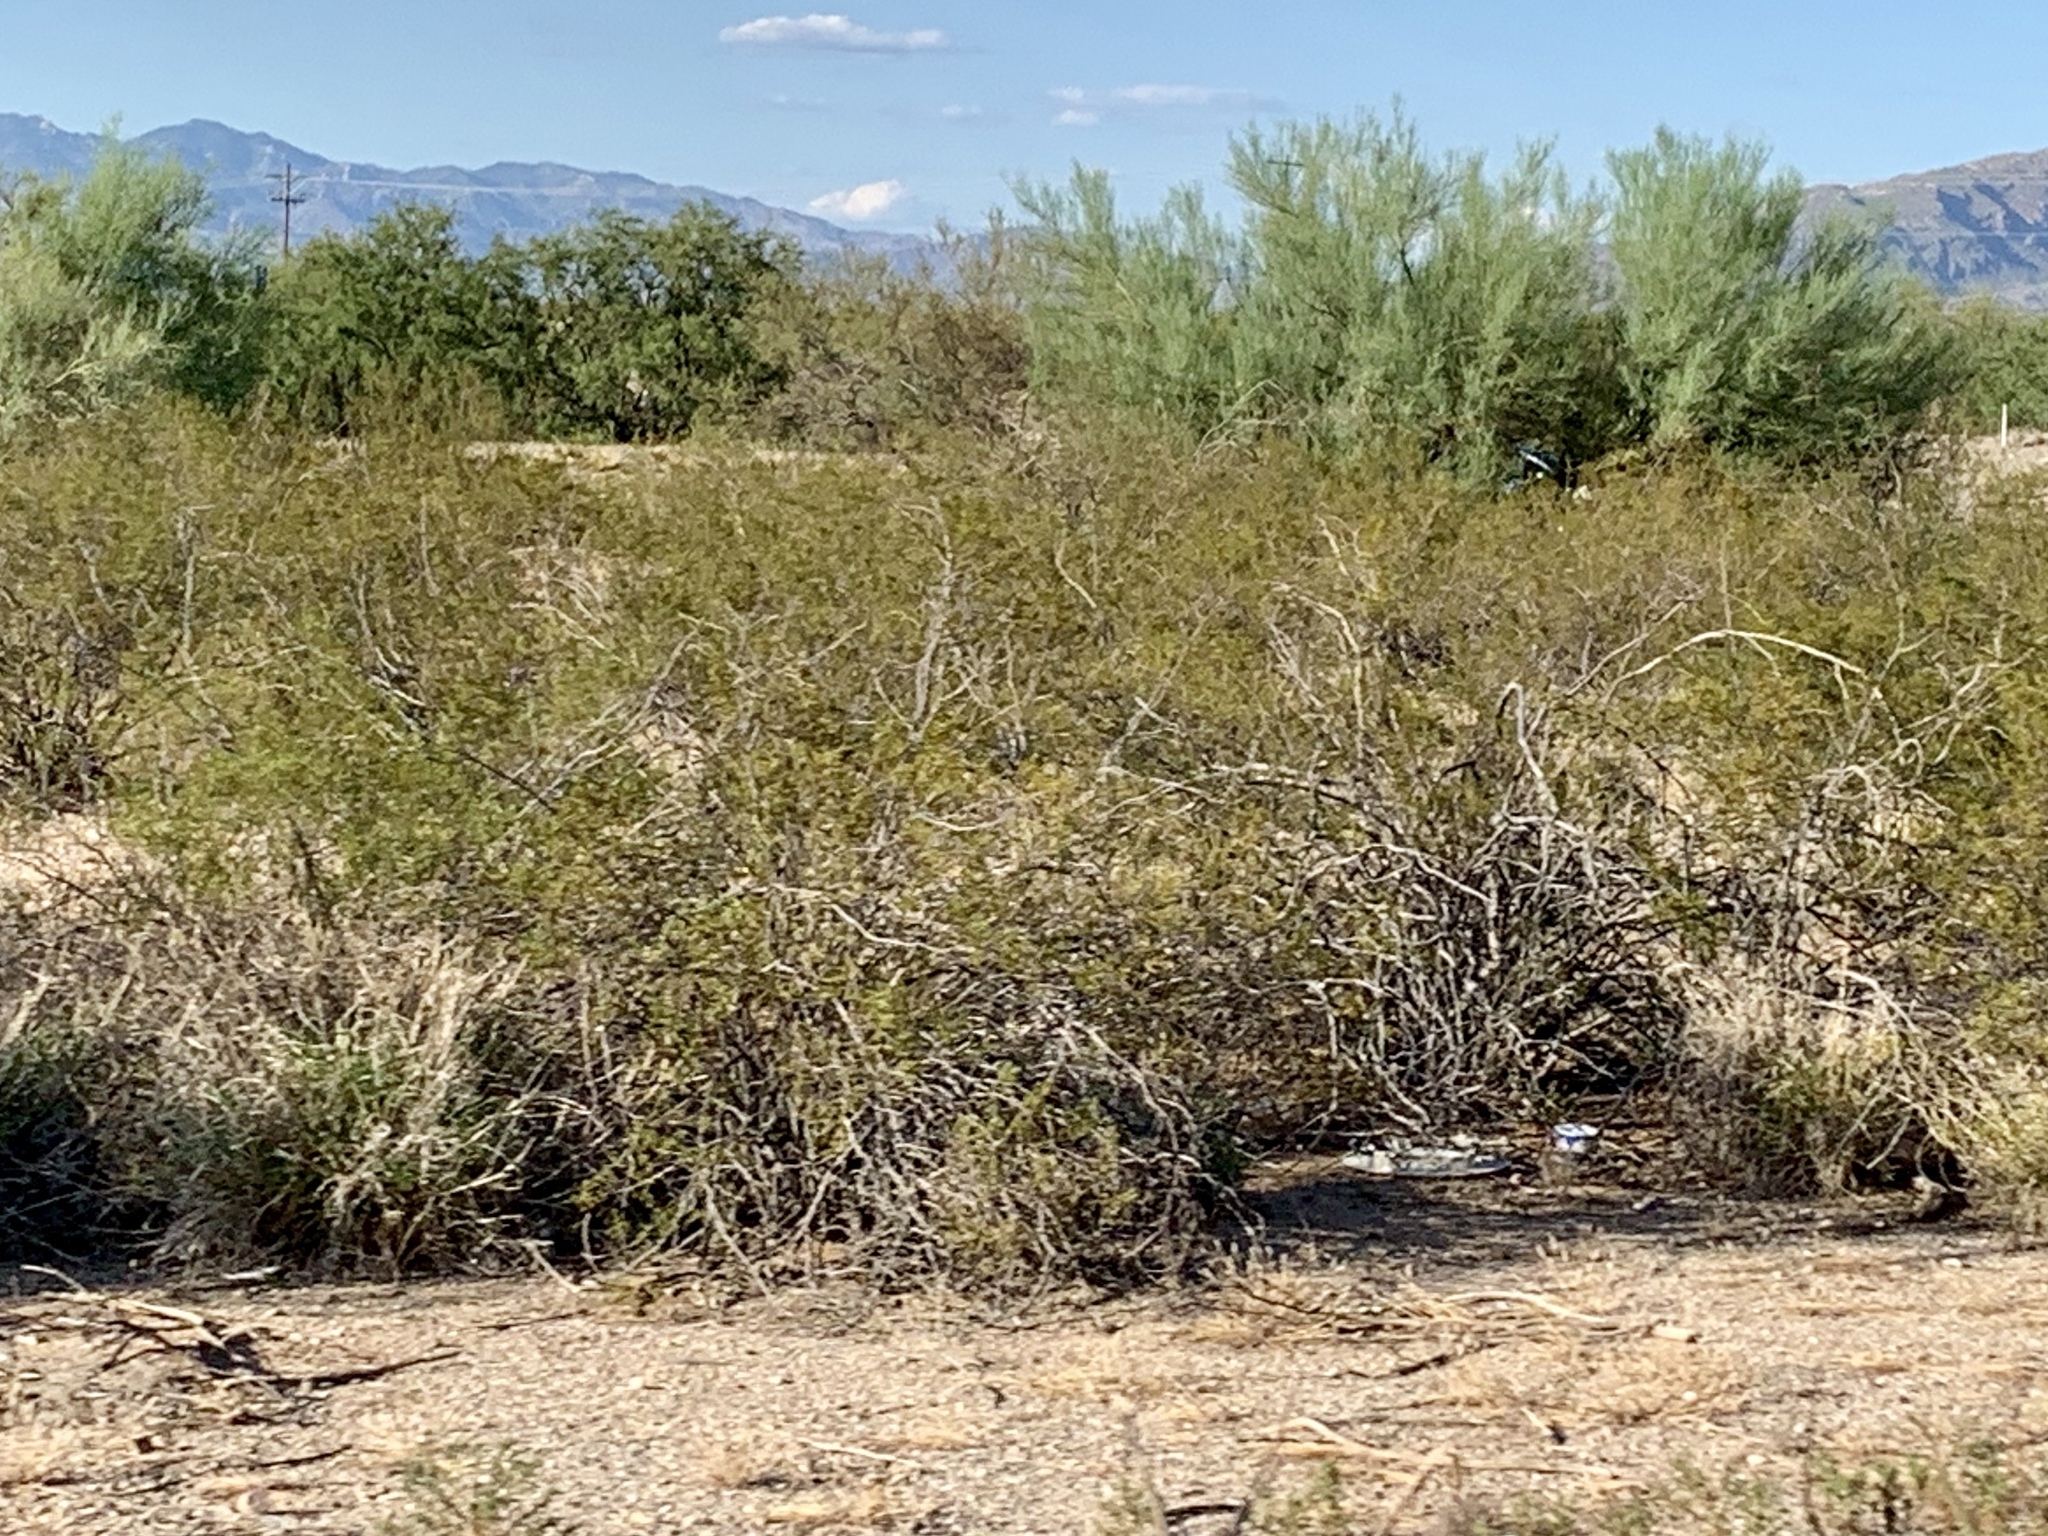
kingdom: Plantae
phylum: Tracheophyta
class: Magnoliopsida
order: Zygophyllales
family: Zygophyllaceae
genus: Larrea
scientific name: Larrea tridentata
